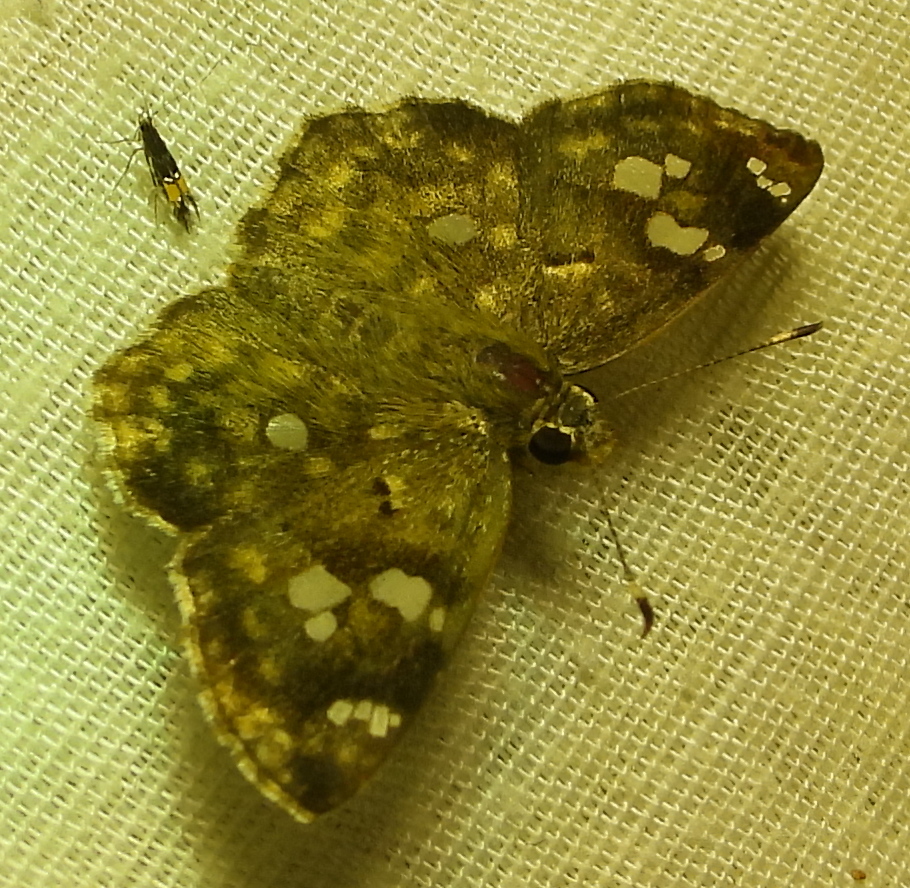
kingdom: Animalia
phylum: Arthropoda
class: Insecta
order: Lepidoptera
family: Hesperiidae
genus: Sarangesa
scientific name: Sarangesa motozi
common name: Forest elfin
